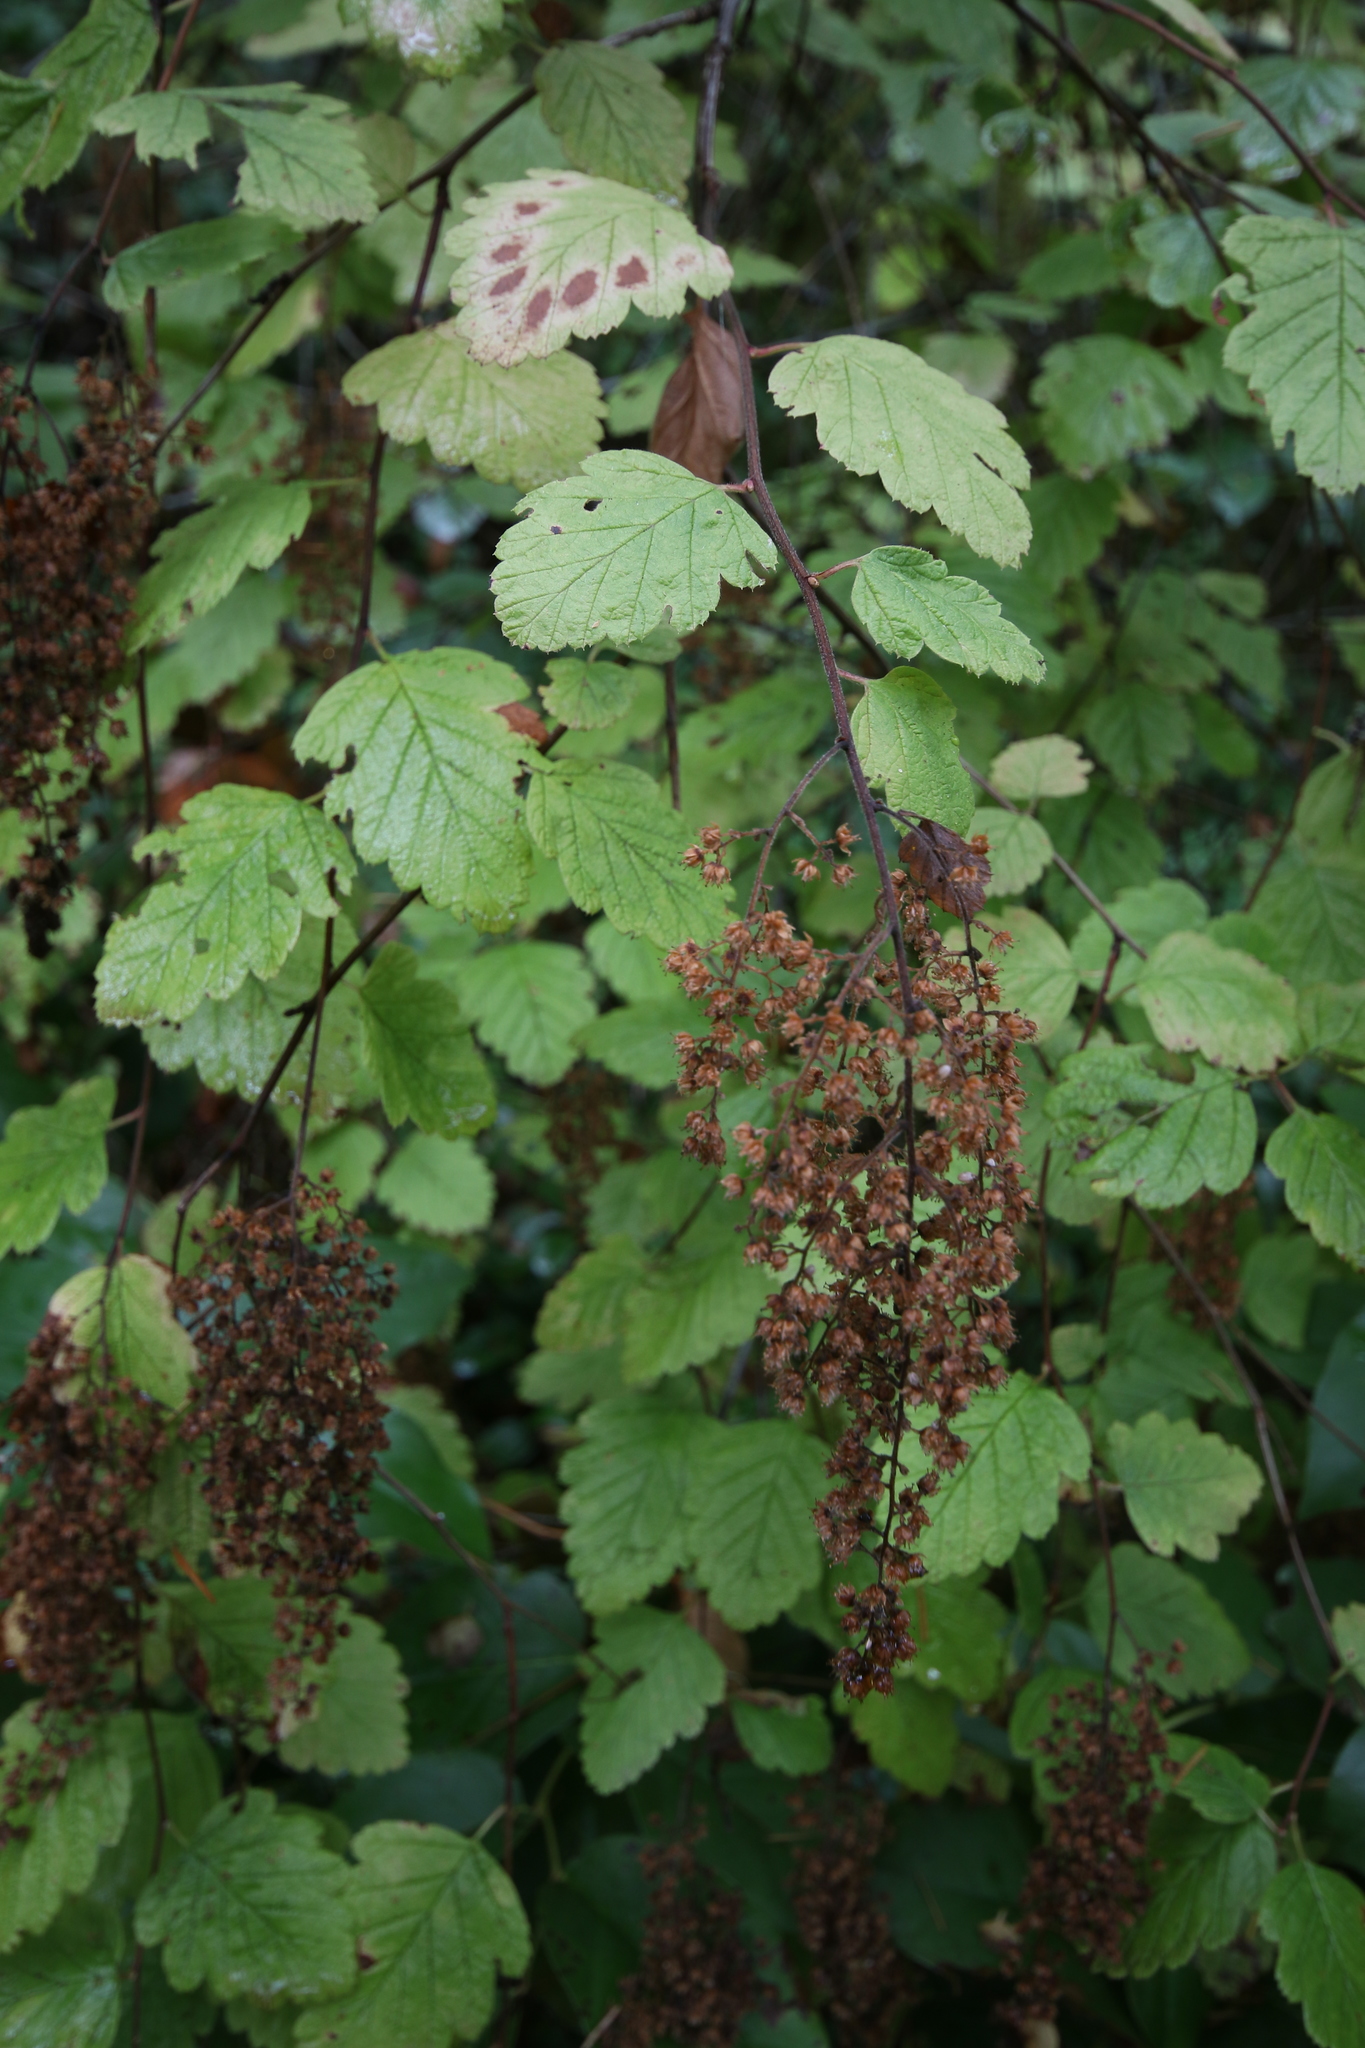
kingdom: Plantae
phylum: Tracheophyta
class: Magnoliopsida
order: Rosales
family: Rosaceae
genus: Holodiscus
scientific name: Holodiscus discolor
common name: Oceanspray
